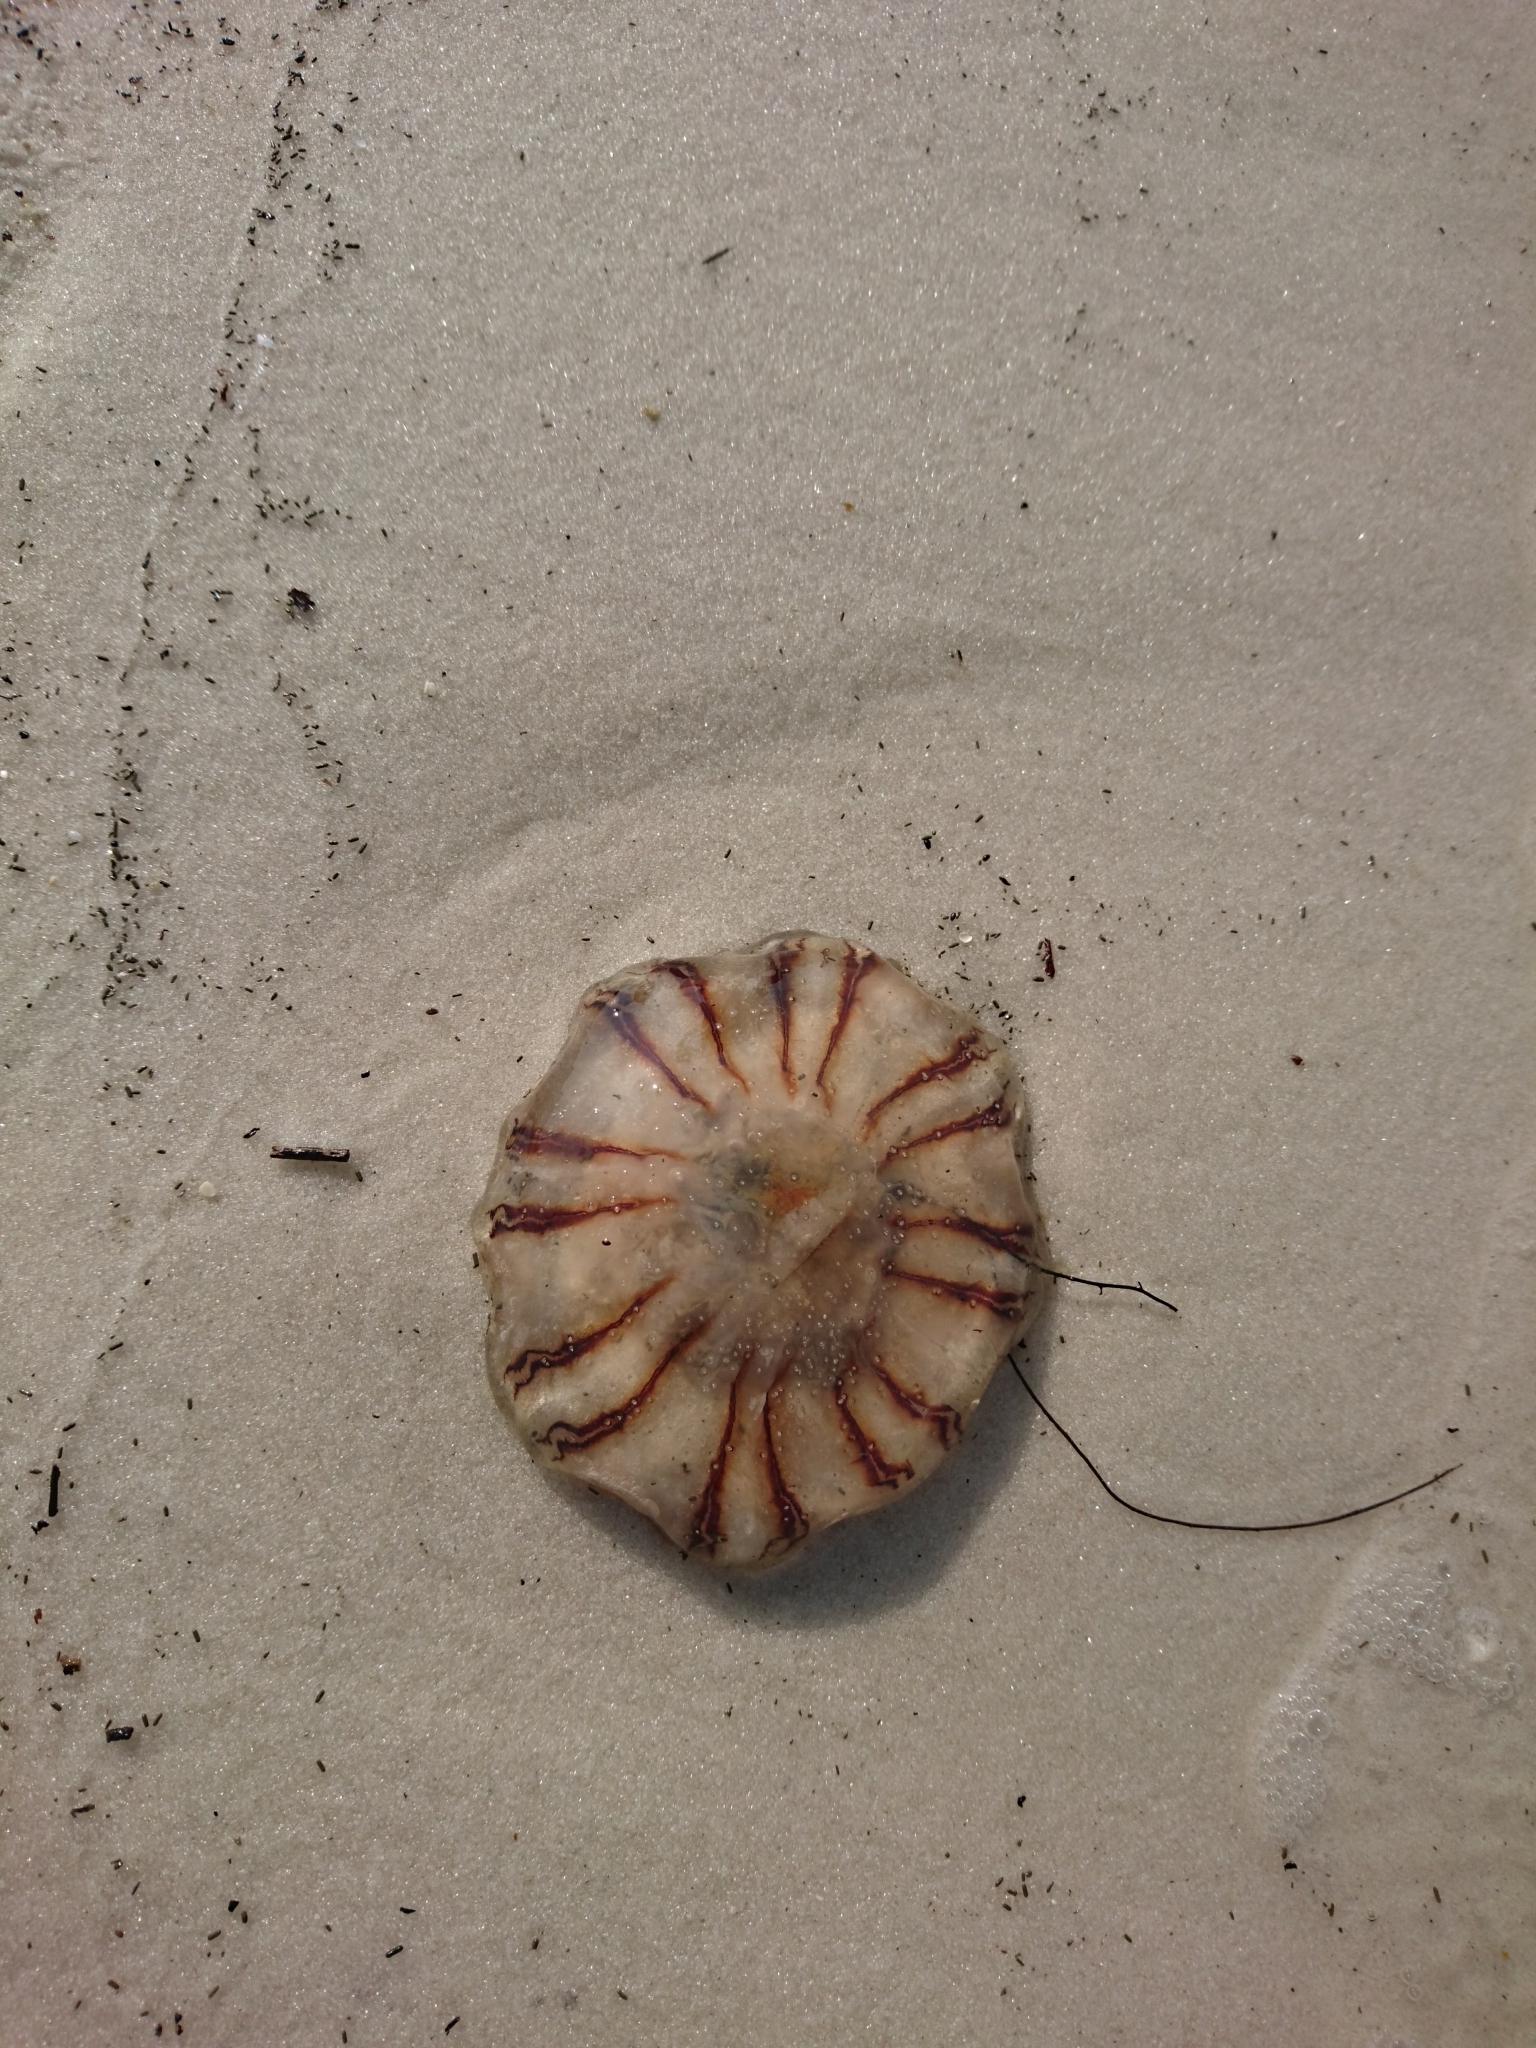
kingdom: Animalia
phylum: Cnidaria
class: Scyphozoa
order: Semaeostomeae
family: Cyaneidae
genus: Cyanea
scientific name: Cyanea versicolor
